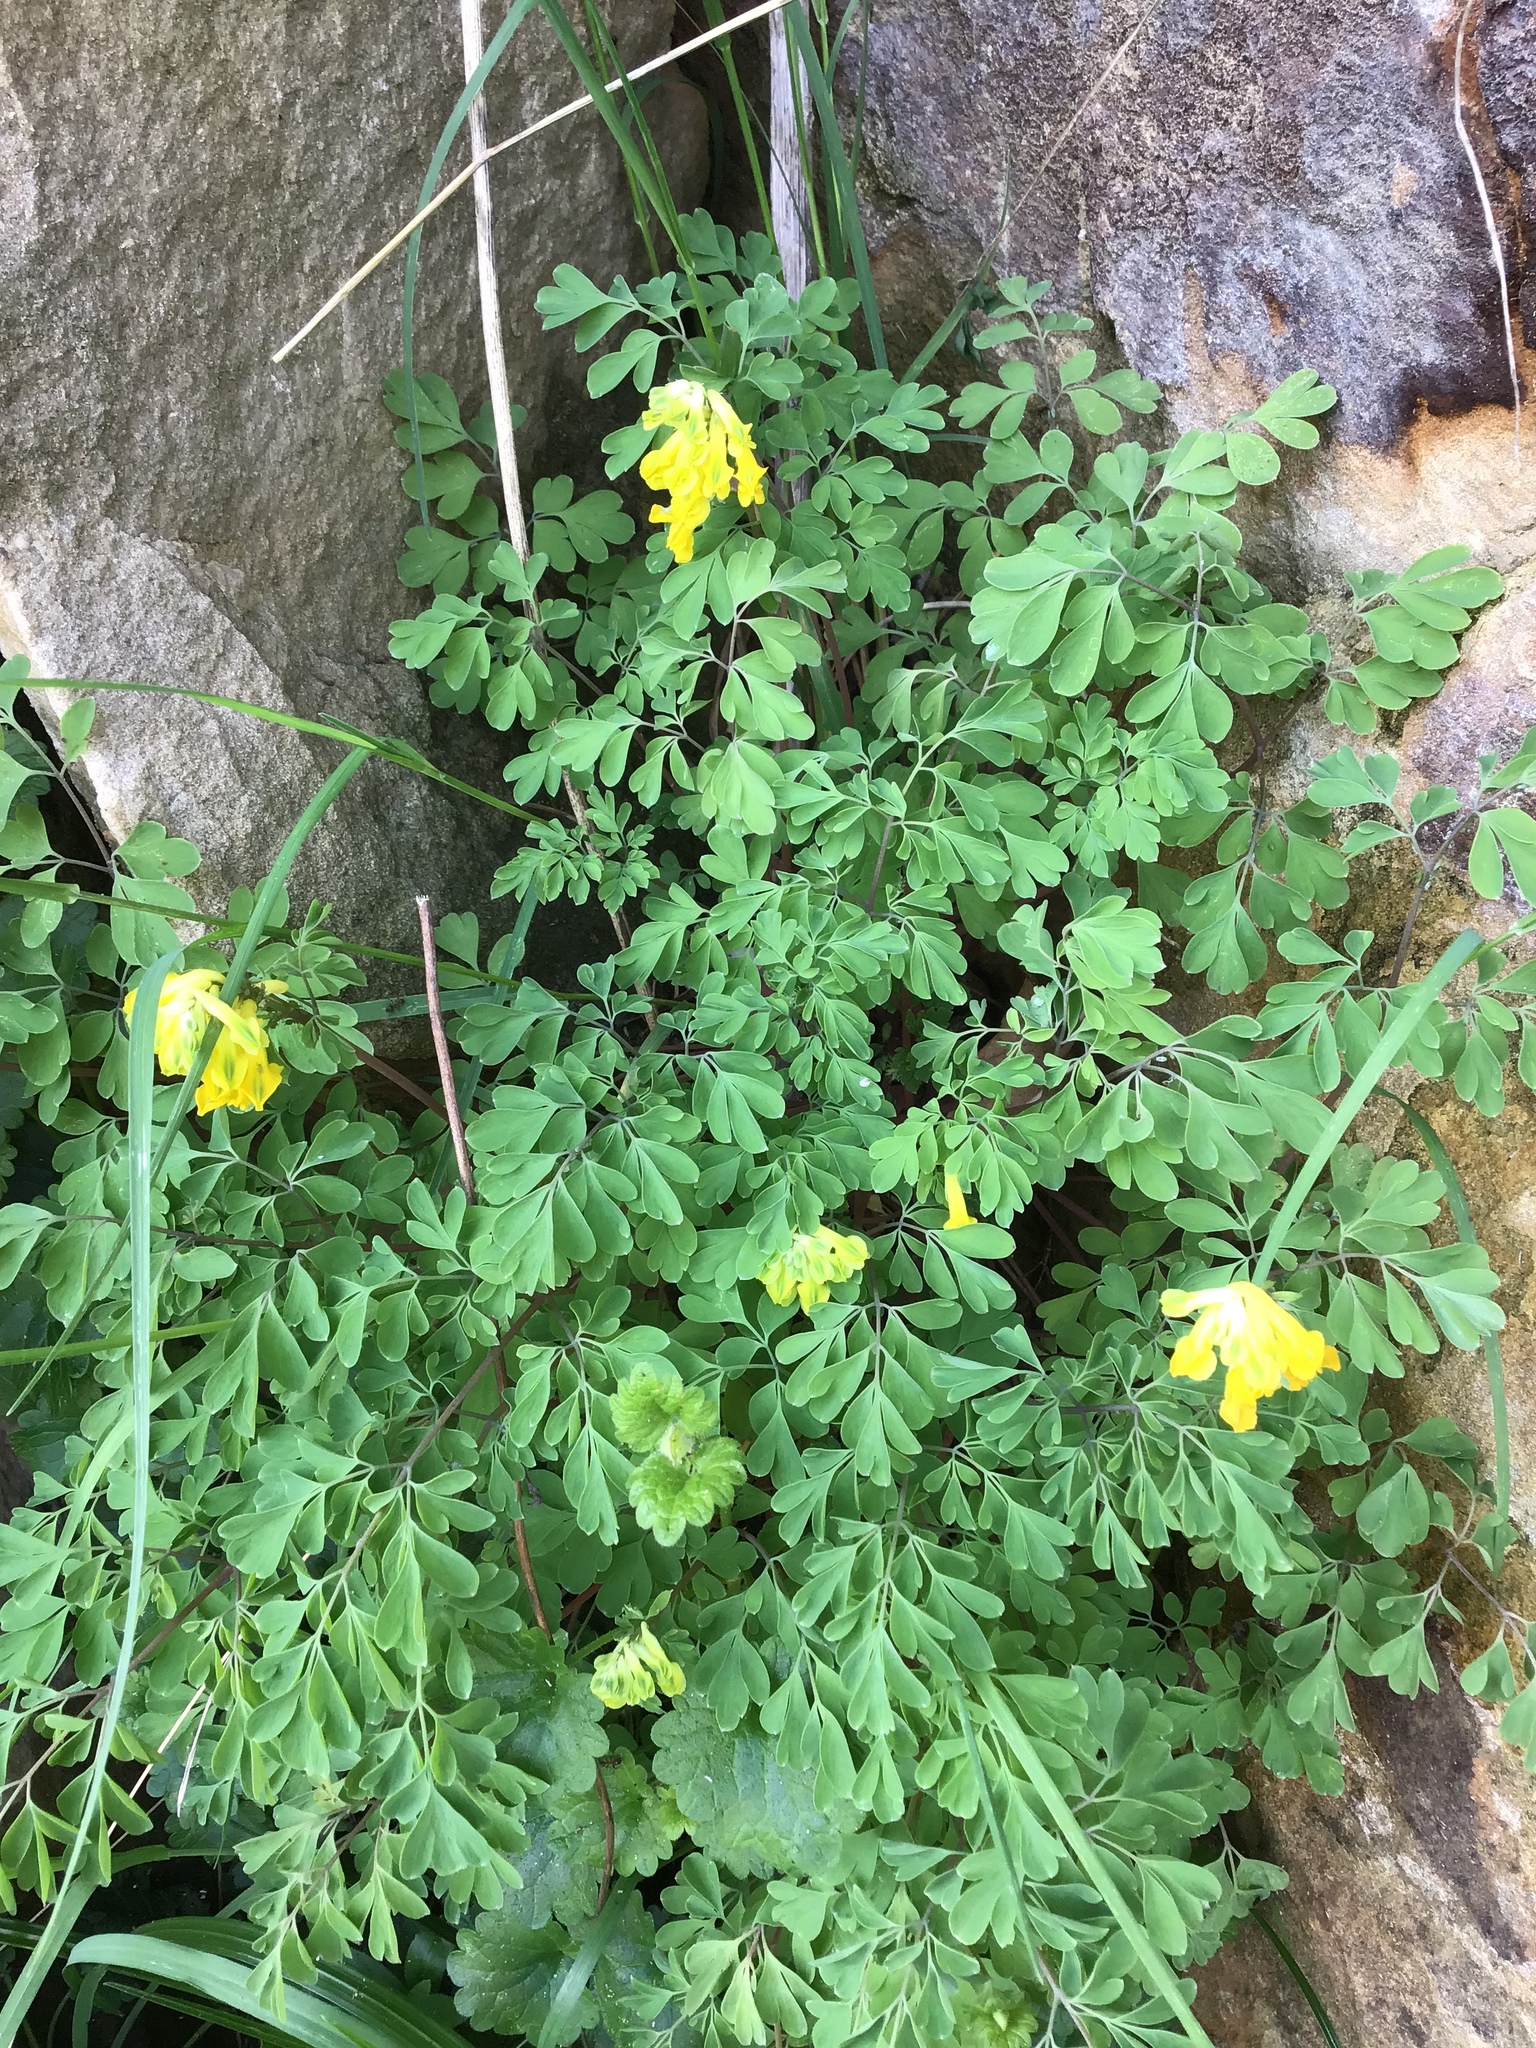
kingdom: Plantae
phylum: Tracheophyta
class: Magnoliopsida
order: Ranunculales
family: Papaveraceae
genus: Pseudofumaria
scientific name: Pseudofumaria lutea
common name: Yellow corydalis
